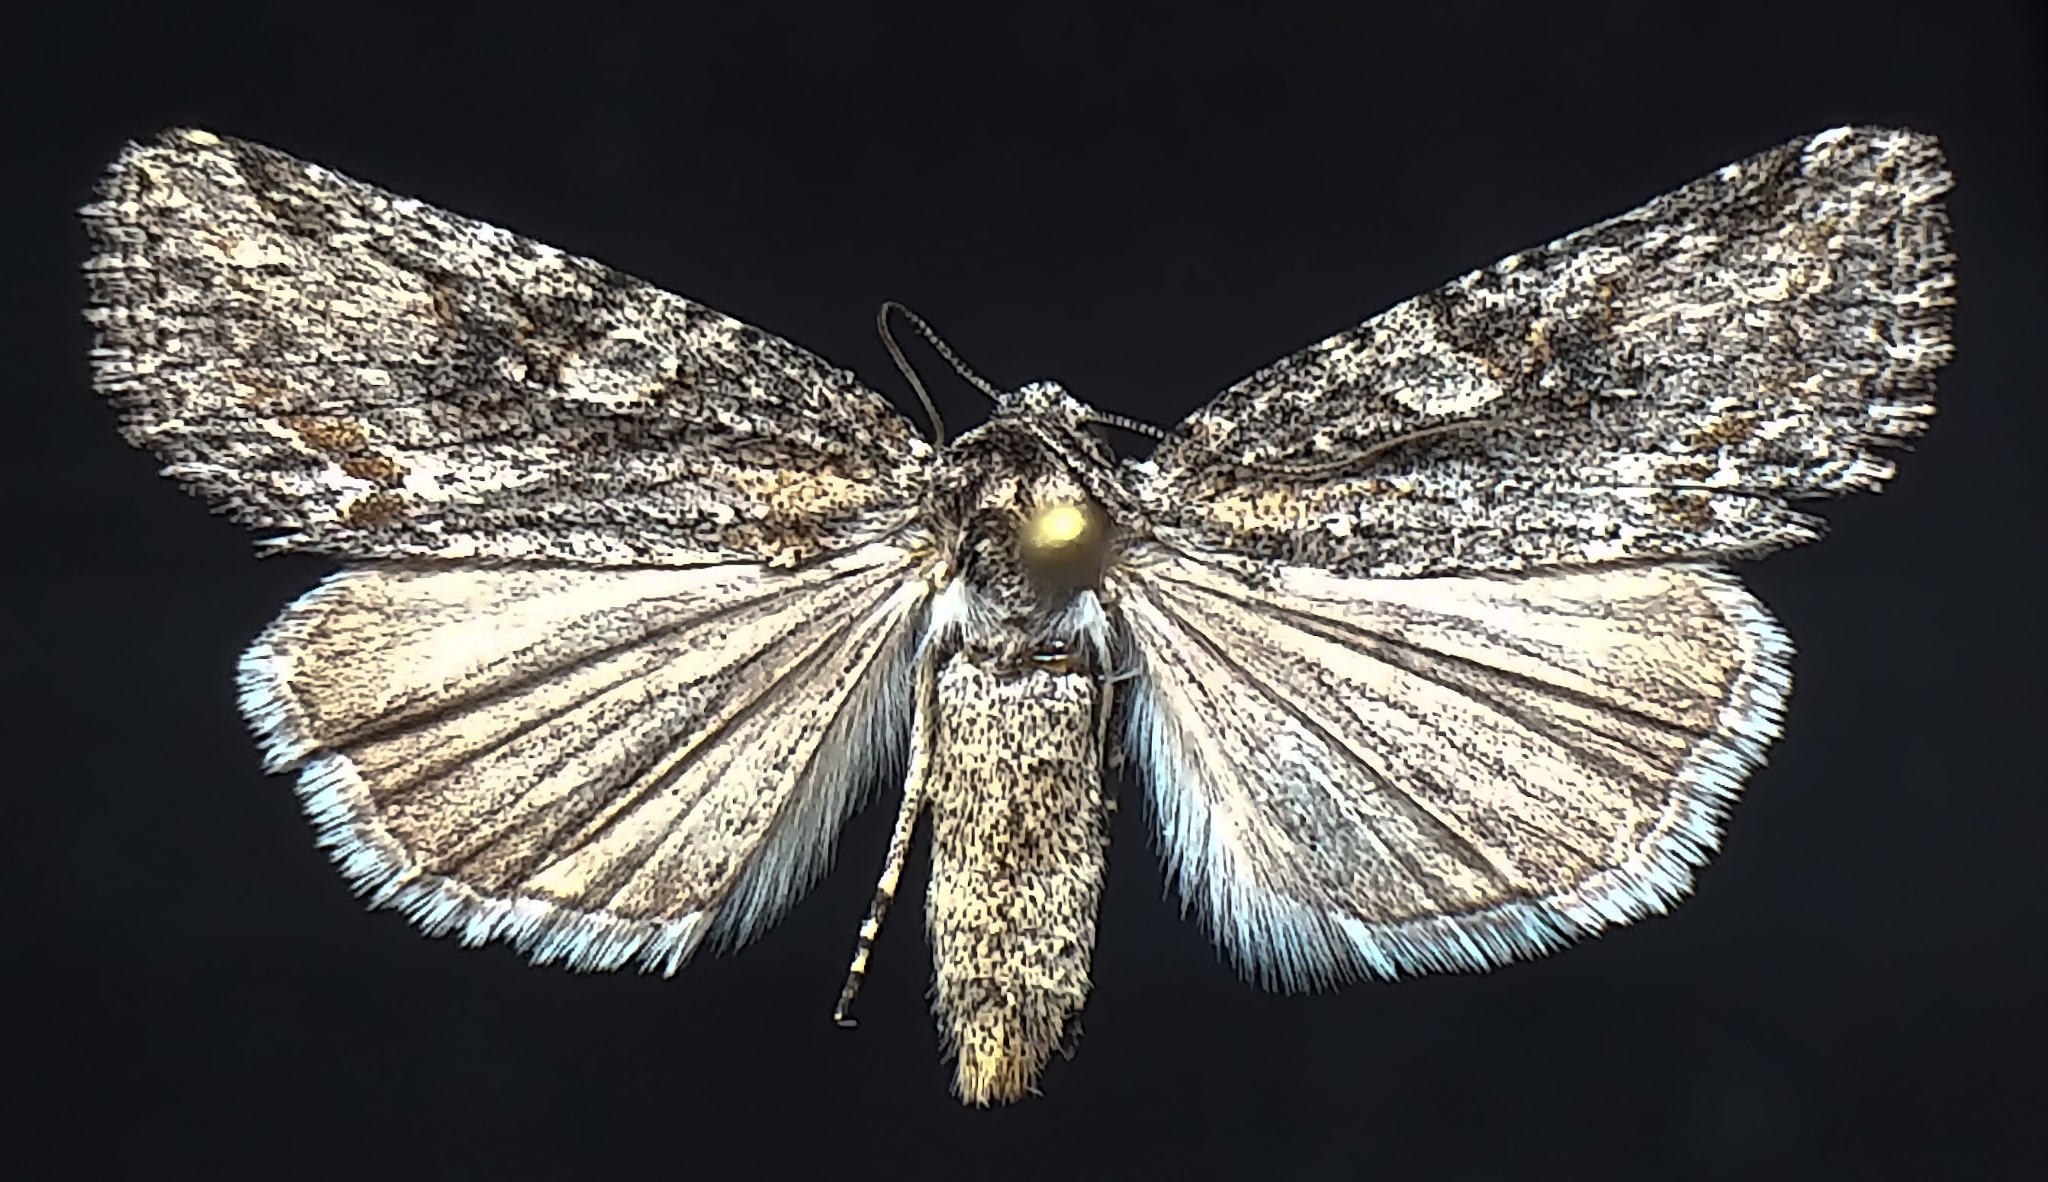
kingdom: Animalia
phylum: Arthropoda
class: Insecta
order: Lepidoptera
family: Noctuidae
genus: Afotella
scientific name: Afotella cylindrica
